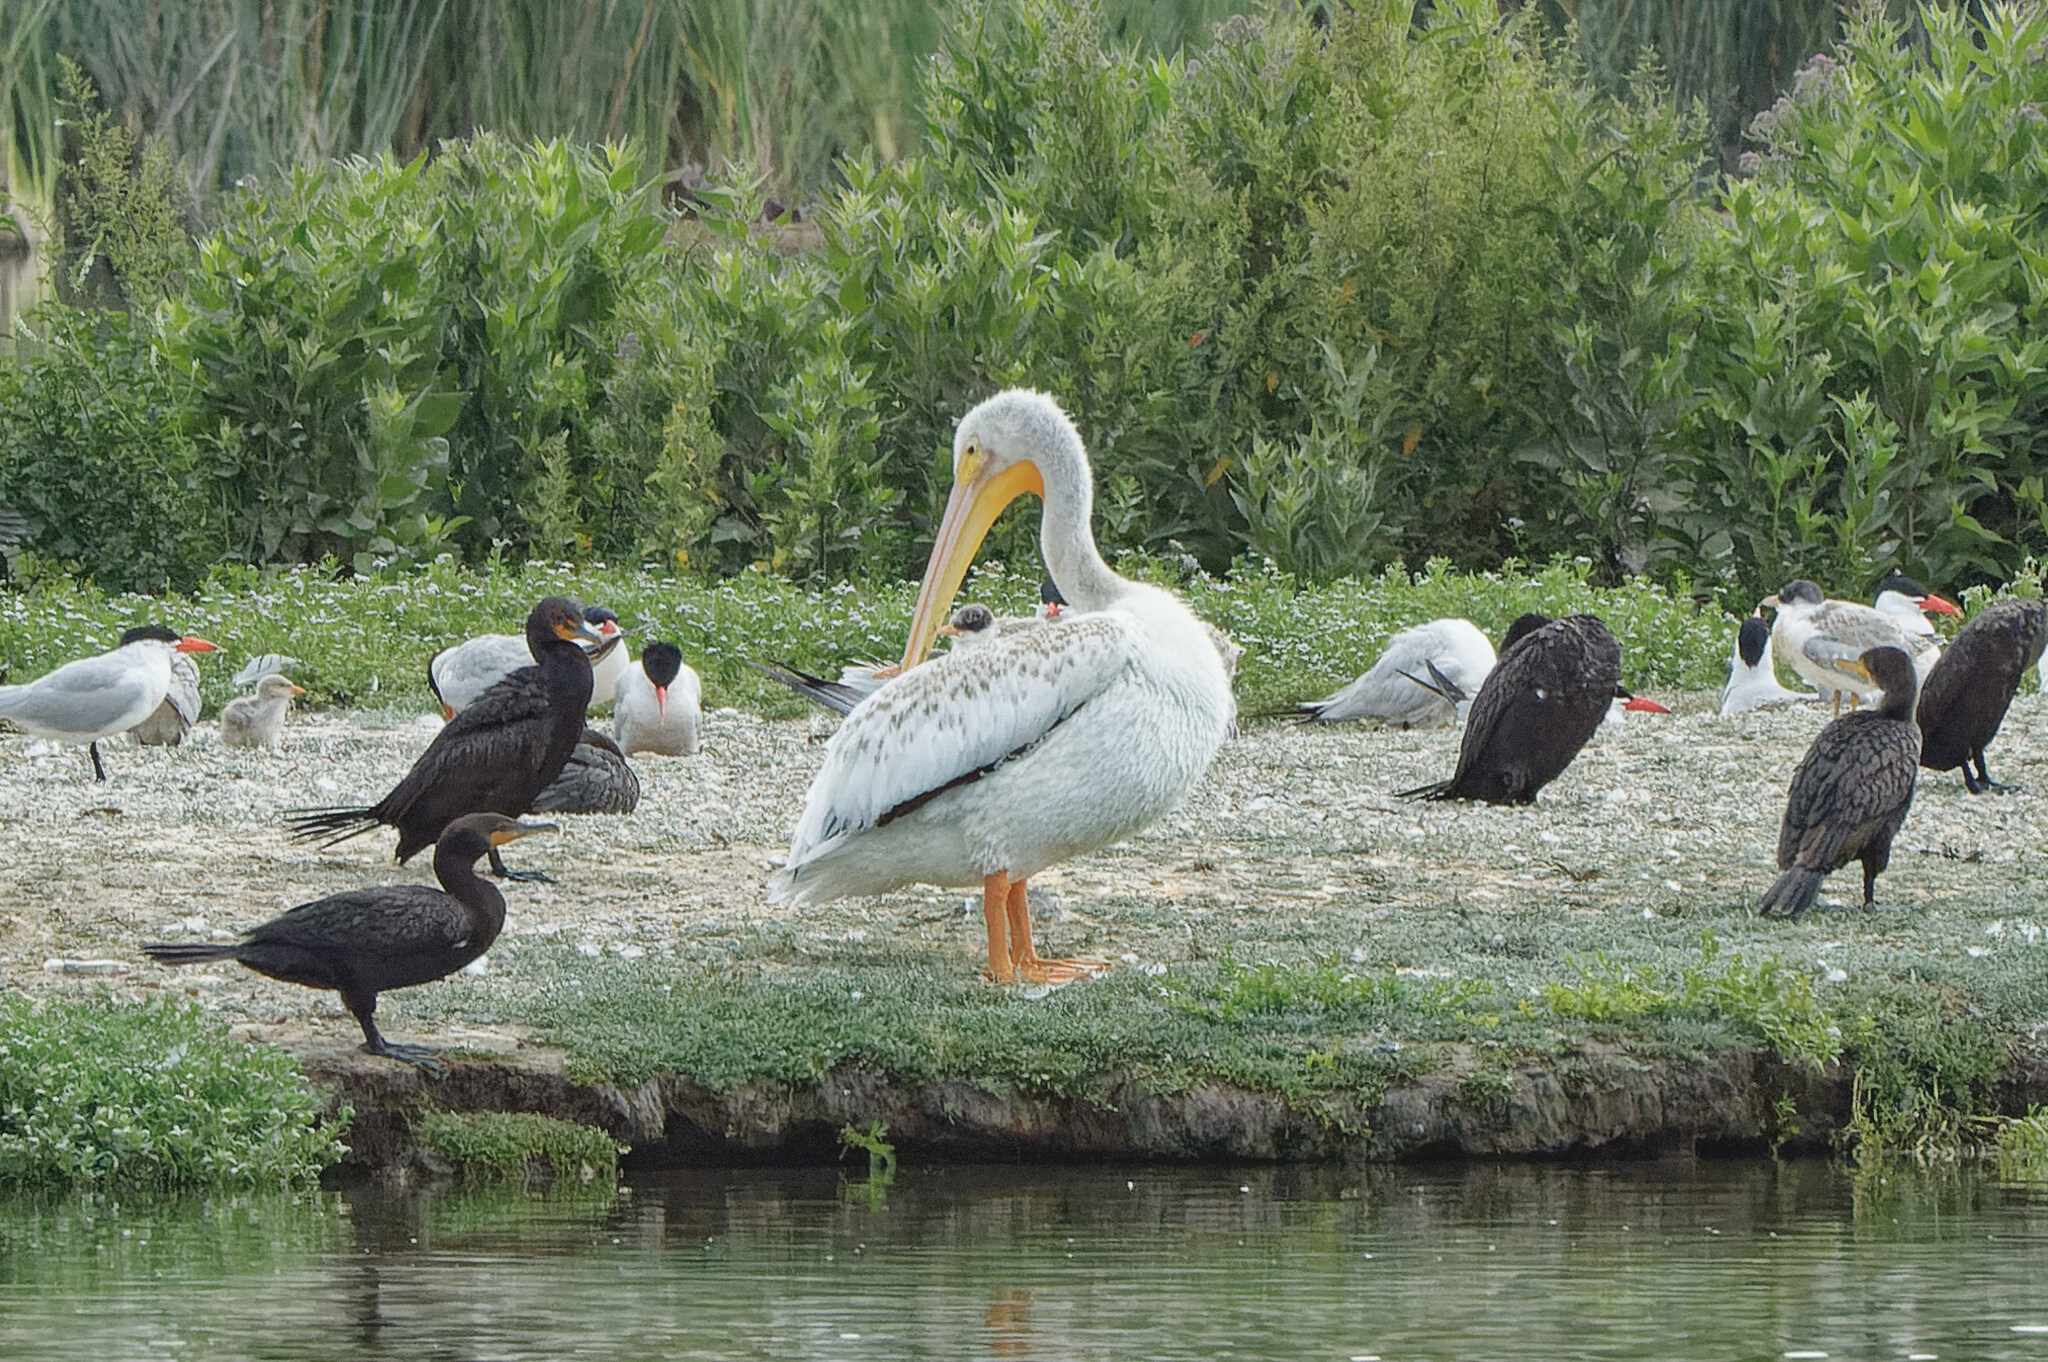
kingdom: Animalia
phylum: Chordata
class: Aves
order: Pelecaniformes
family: Pelecanidae
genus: Pelecanus
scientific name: Pelecanus erythrorhynchos
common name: American white pelican
